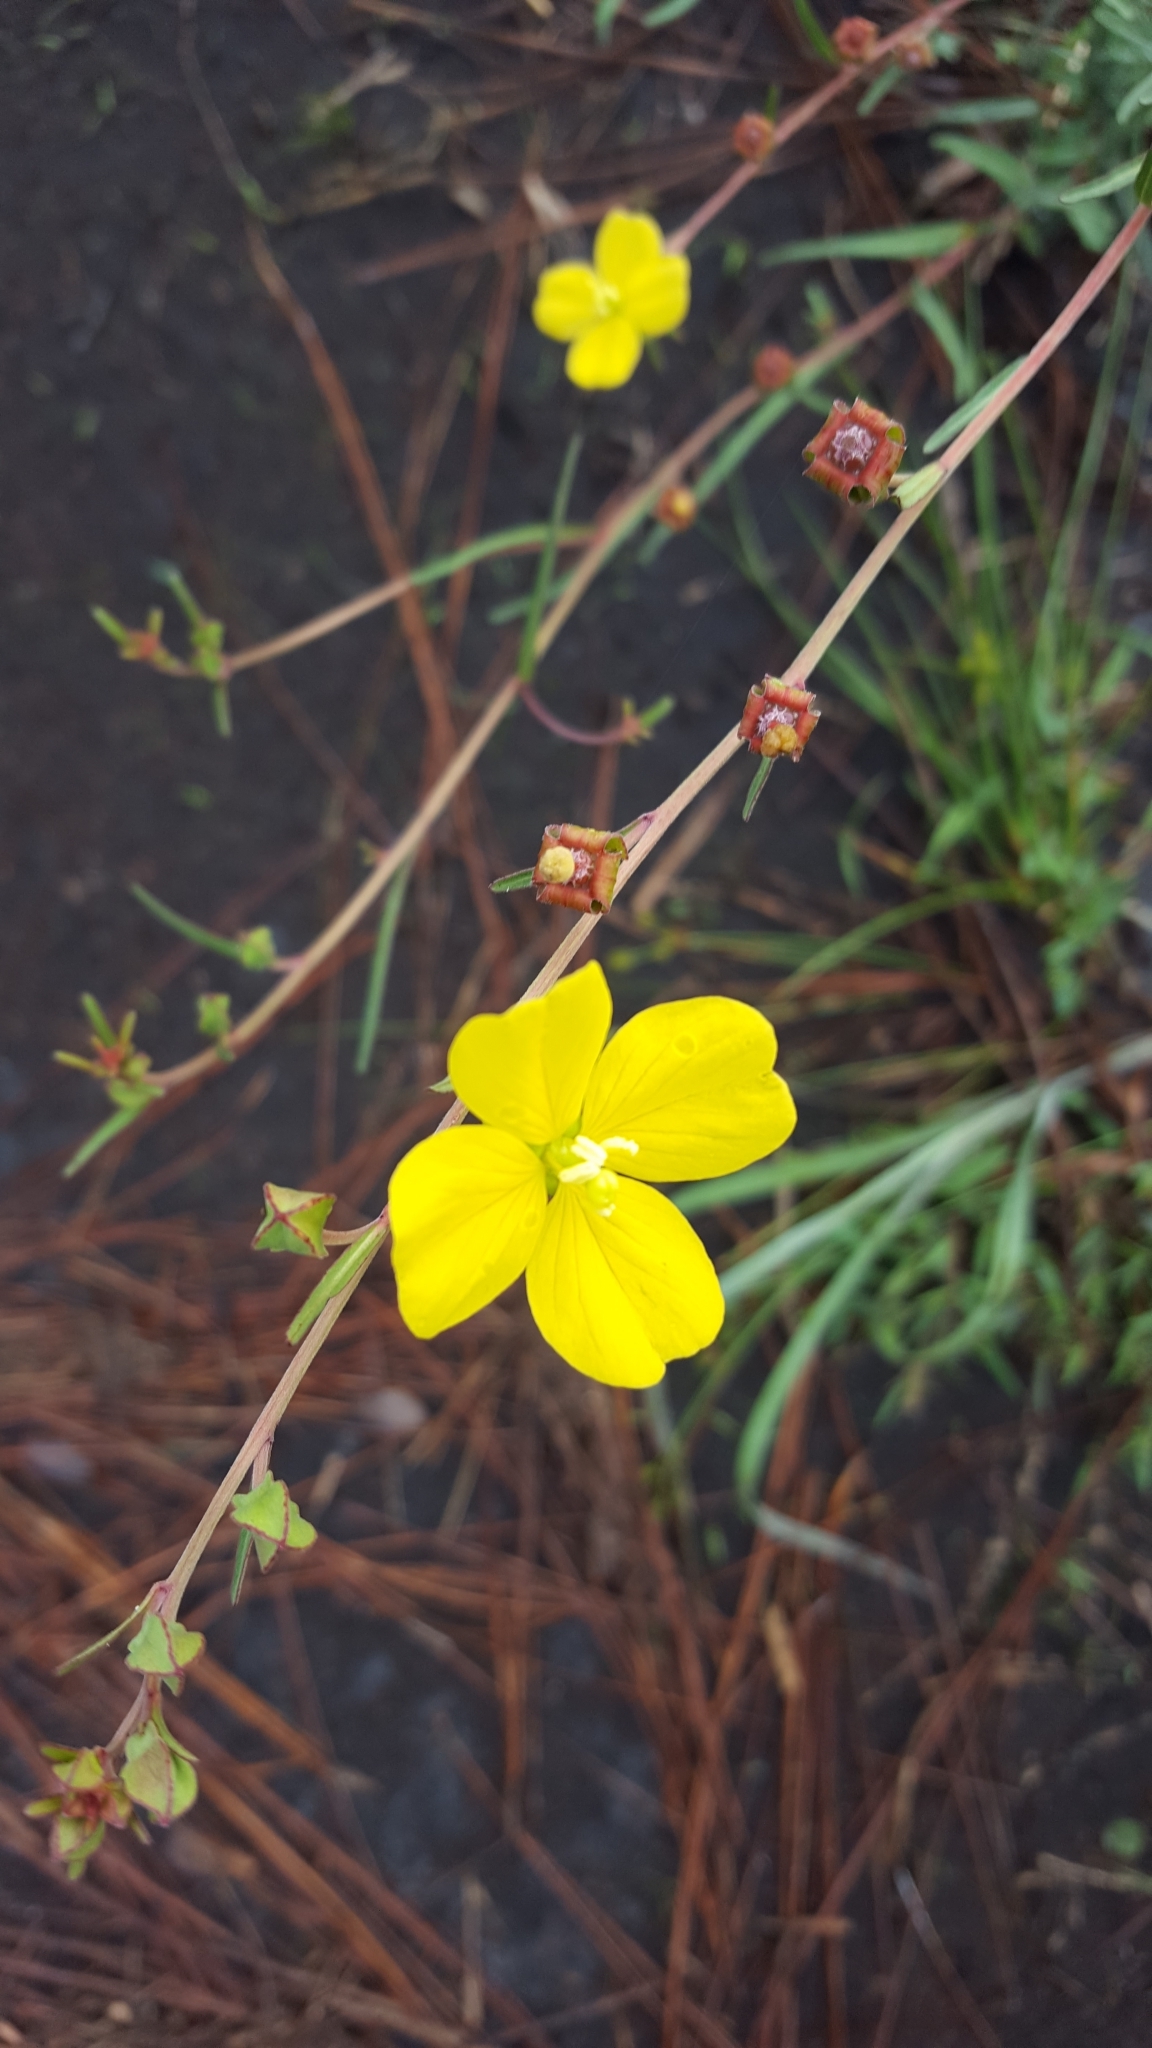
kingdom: Plantae
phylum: Tracheophyta
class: Magnoliopsida
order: Myrtales
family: Onagraceae
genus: Ludwigia
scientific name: Ludwigia maritima
